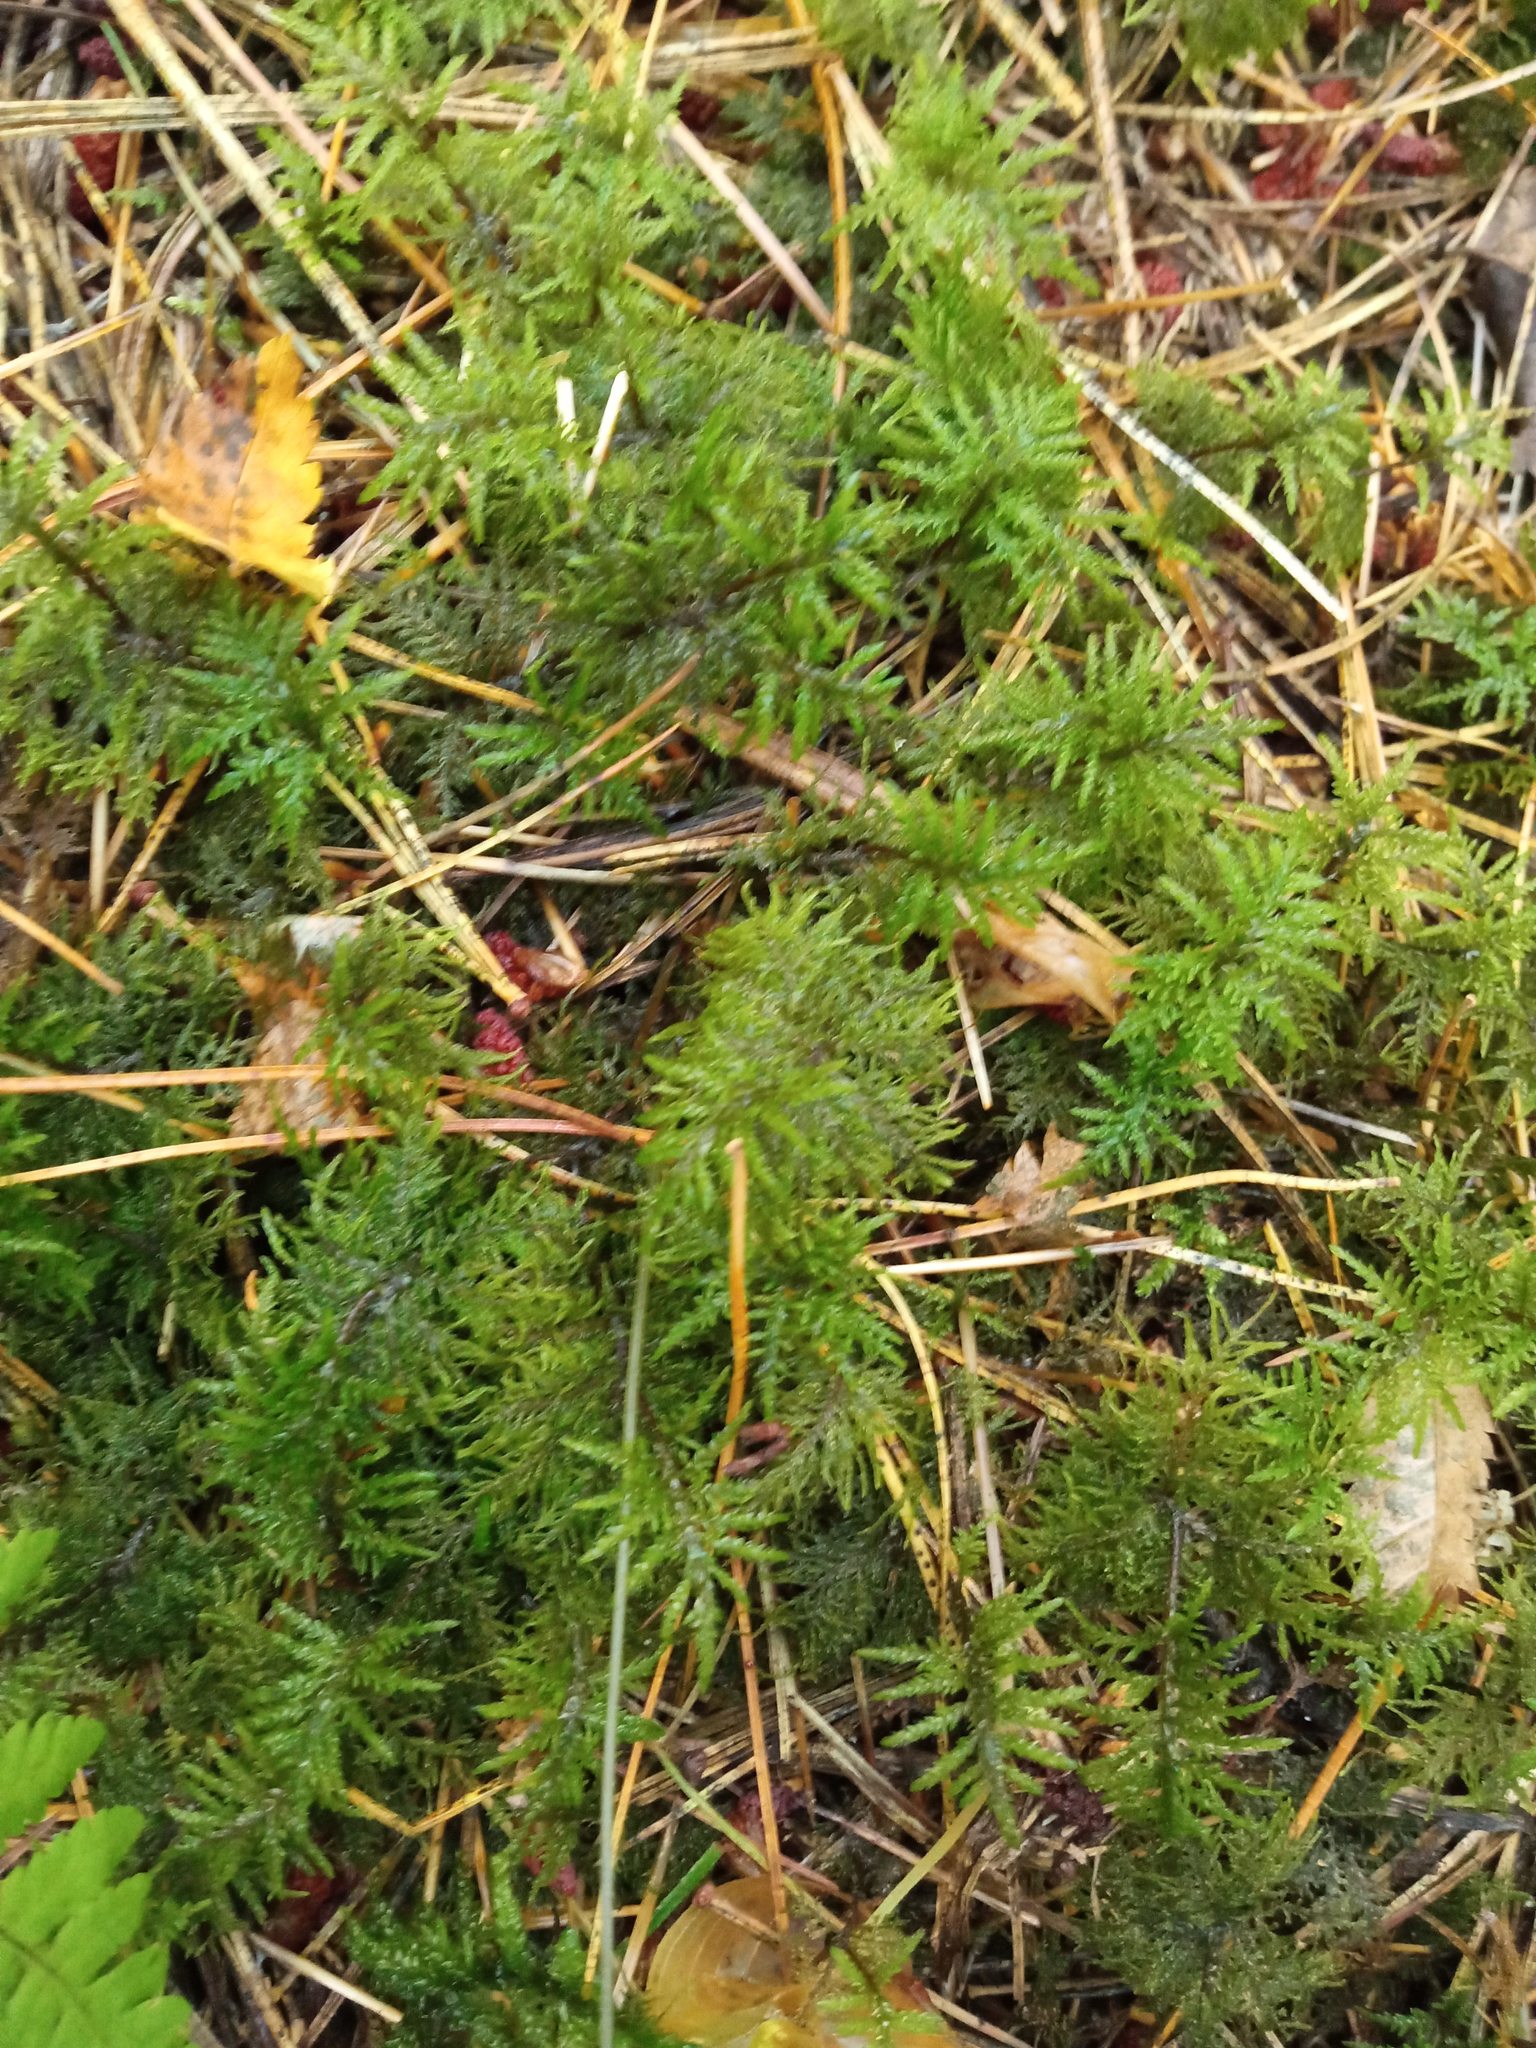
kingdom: Plantae
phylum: Bryophyta
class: Bryopsida
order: Hypnales
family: Hylocomiaceae
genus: Hylocomium
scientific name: Hylocomium splendens
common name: Stairstep moss
